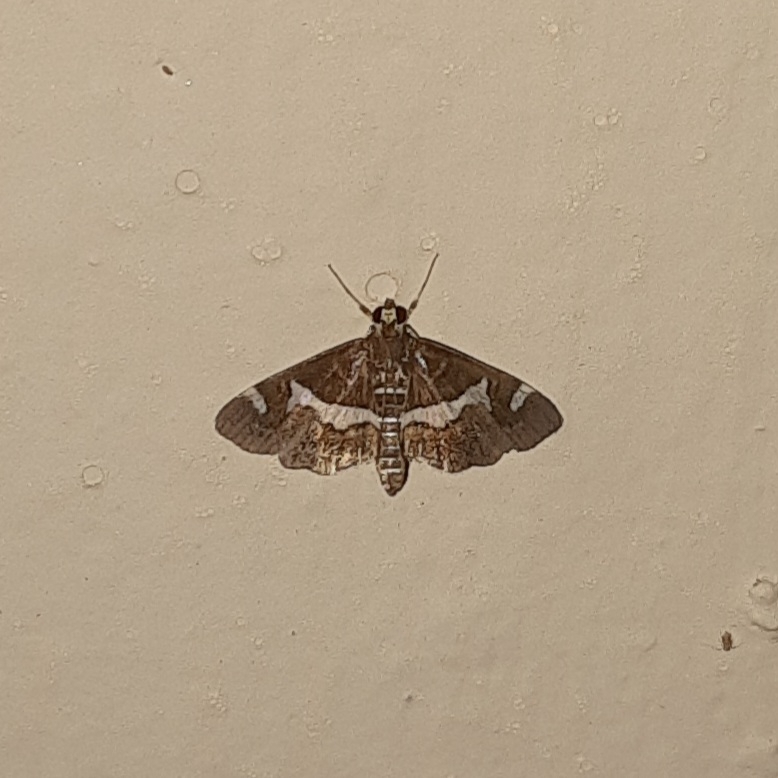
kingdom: Animalia
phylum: Arthropoda
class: Insecta
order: Lepidoptera
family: Crambidae
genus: Spoladea
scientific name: Spoladea recurvalis
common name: Beet webworm moth
